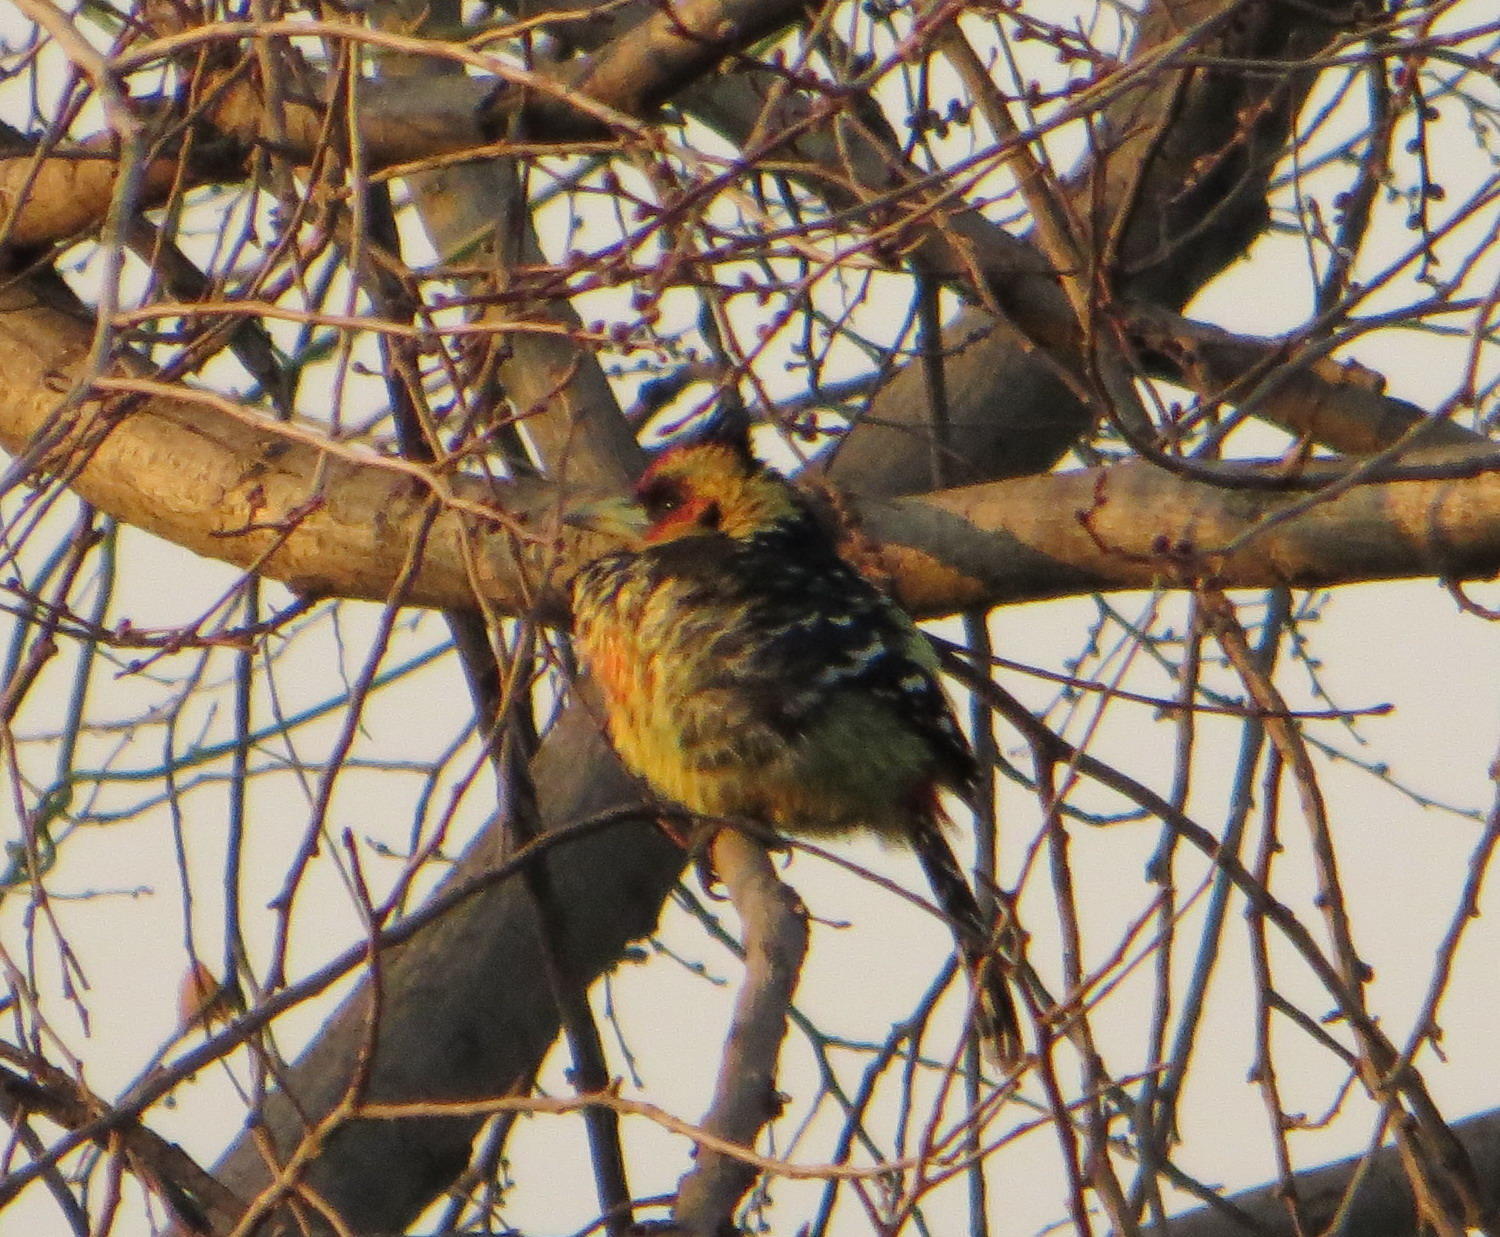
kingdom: Animalia
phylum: Chordata
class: Aves
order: Piciformes
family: Lybiidae
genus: Trachyphonus
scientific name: Trachyphonus vaillantii
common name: Crested barbet
